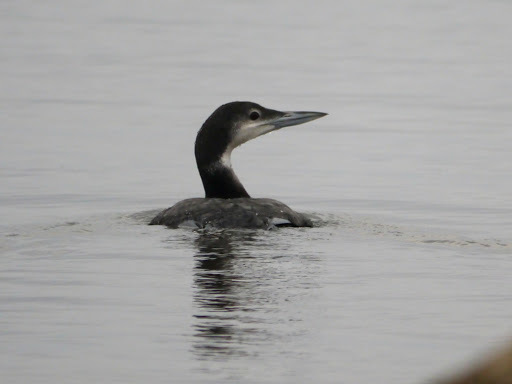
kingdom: Animalia
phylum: Chordata
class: Aves
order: Gaviiformes
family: Gaviidae
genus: Gavia
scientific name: Gavia immer
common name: Common loon
